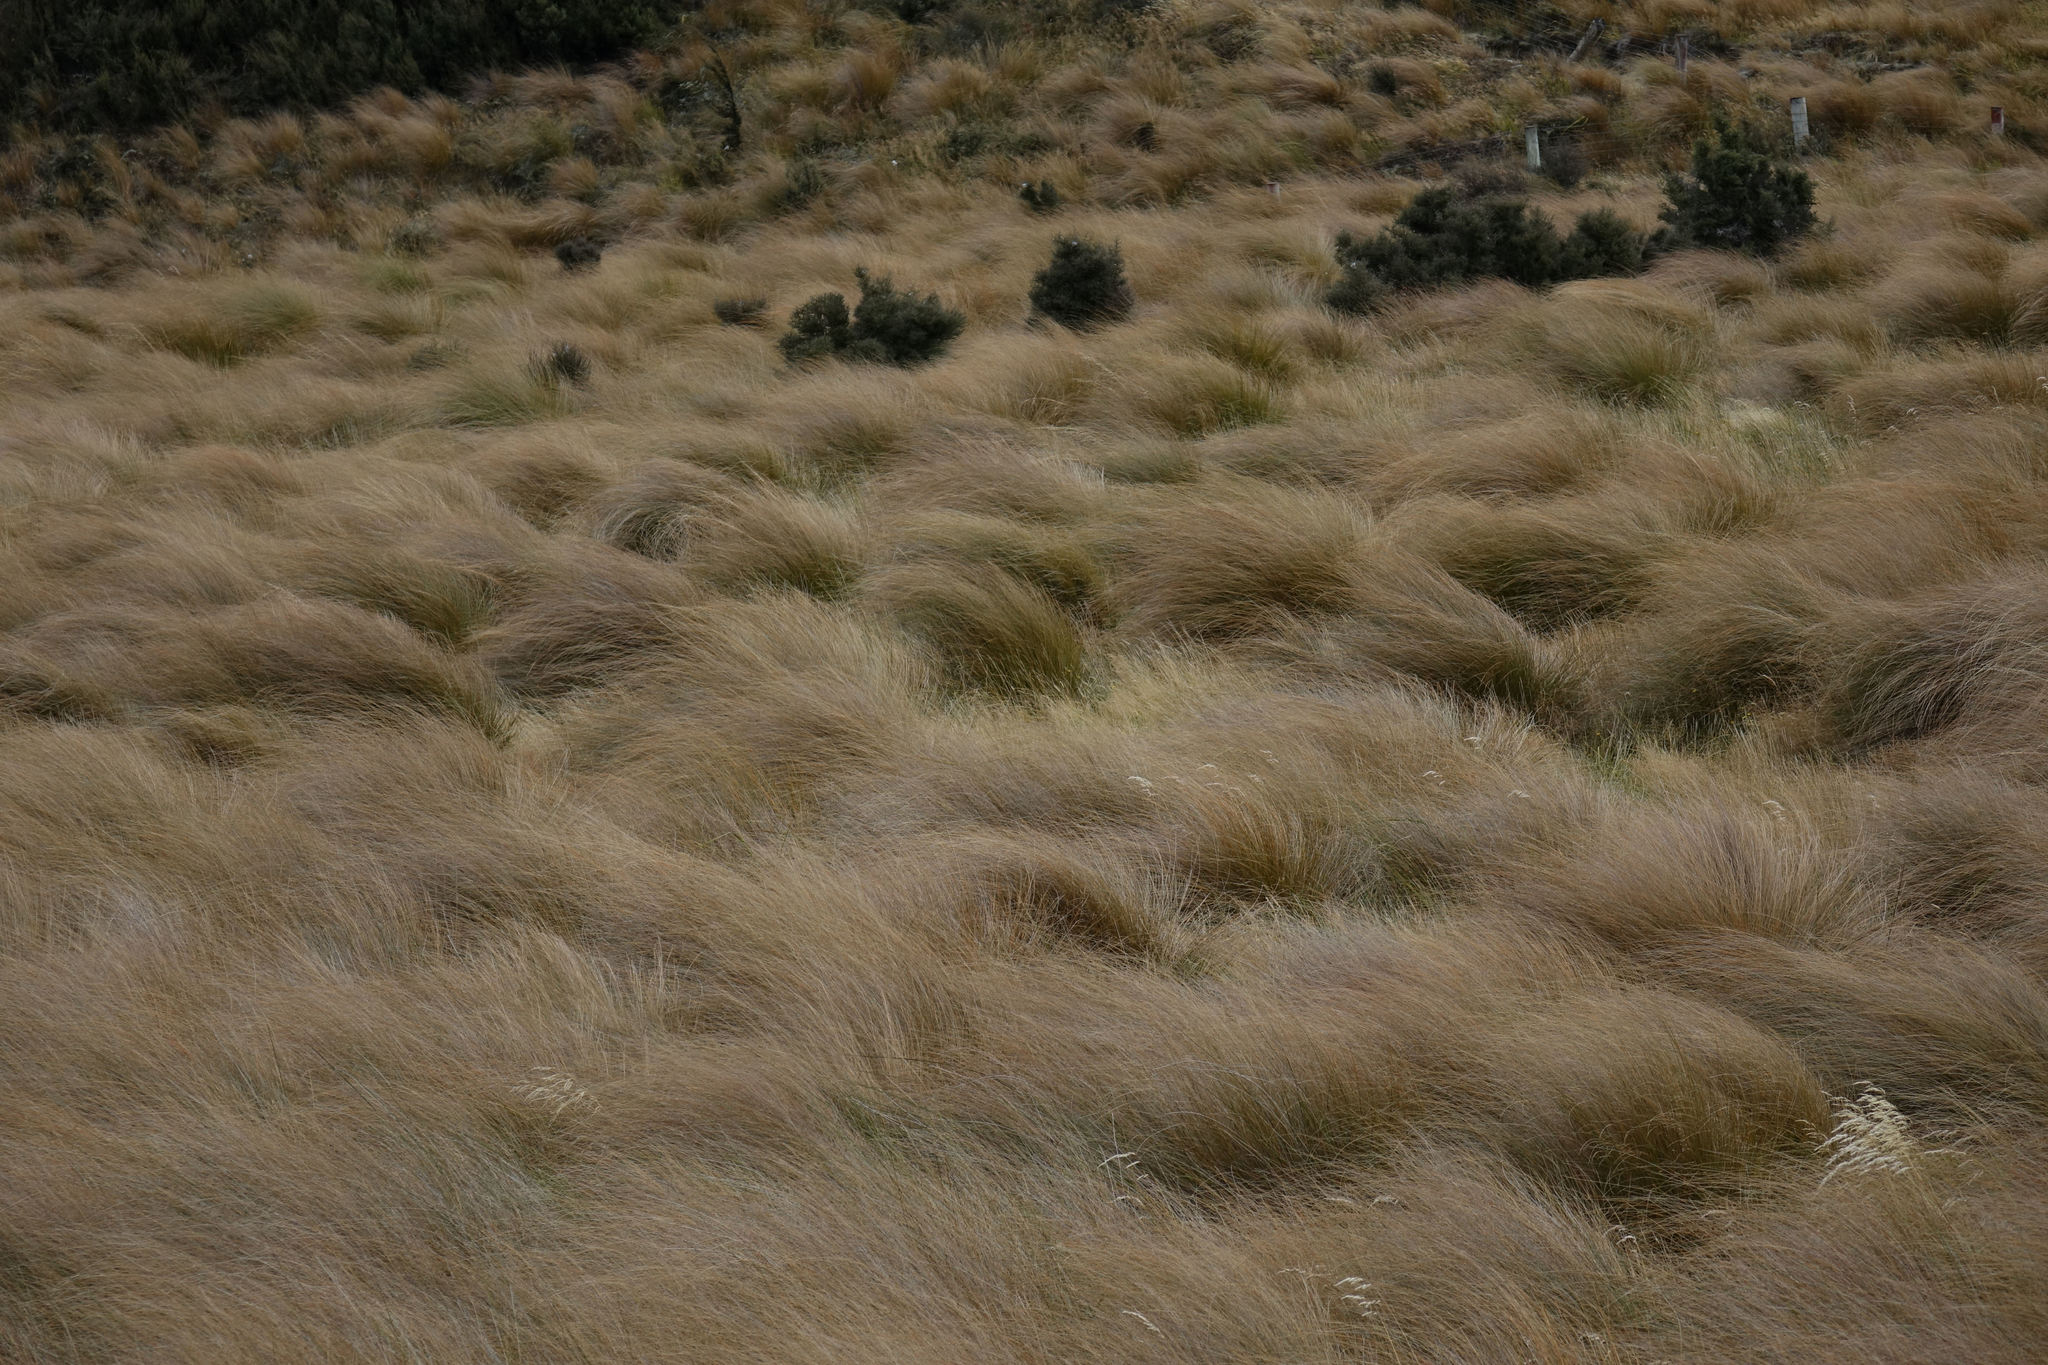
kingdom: Plantae
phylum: Tracheophyta
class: Liliopsida
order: Poales
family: Poaceae
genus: Chionochloa
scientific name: Chionochloa rubra
